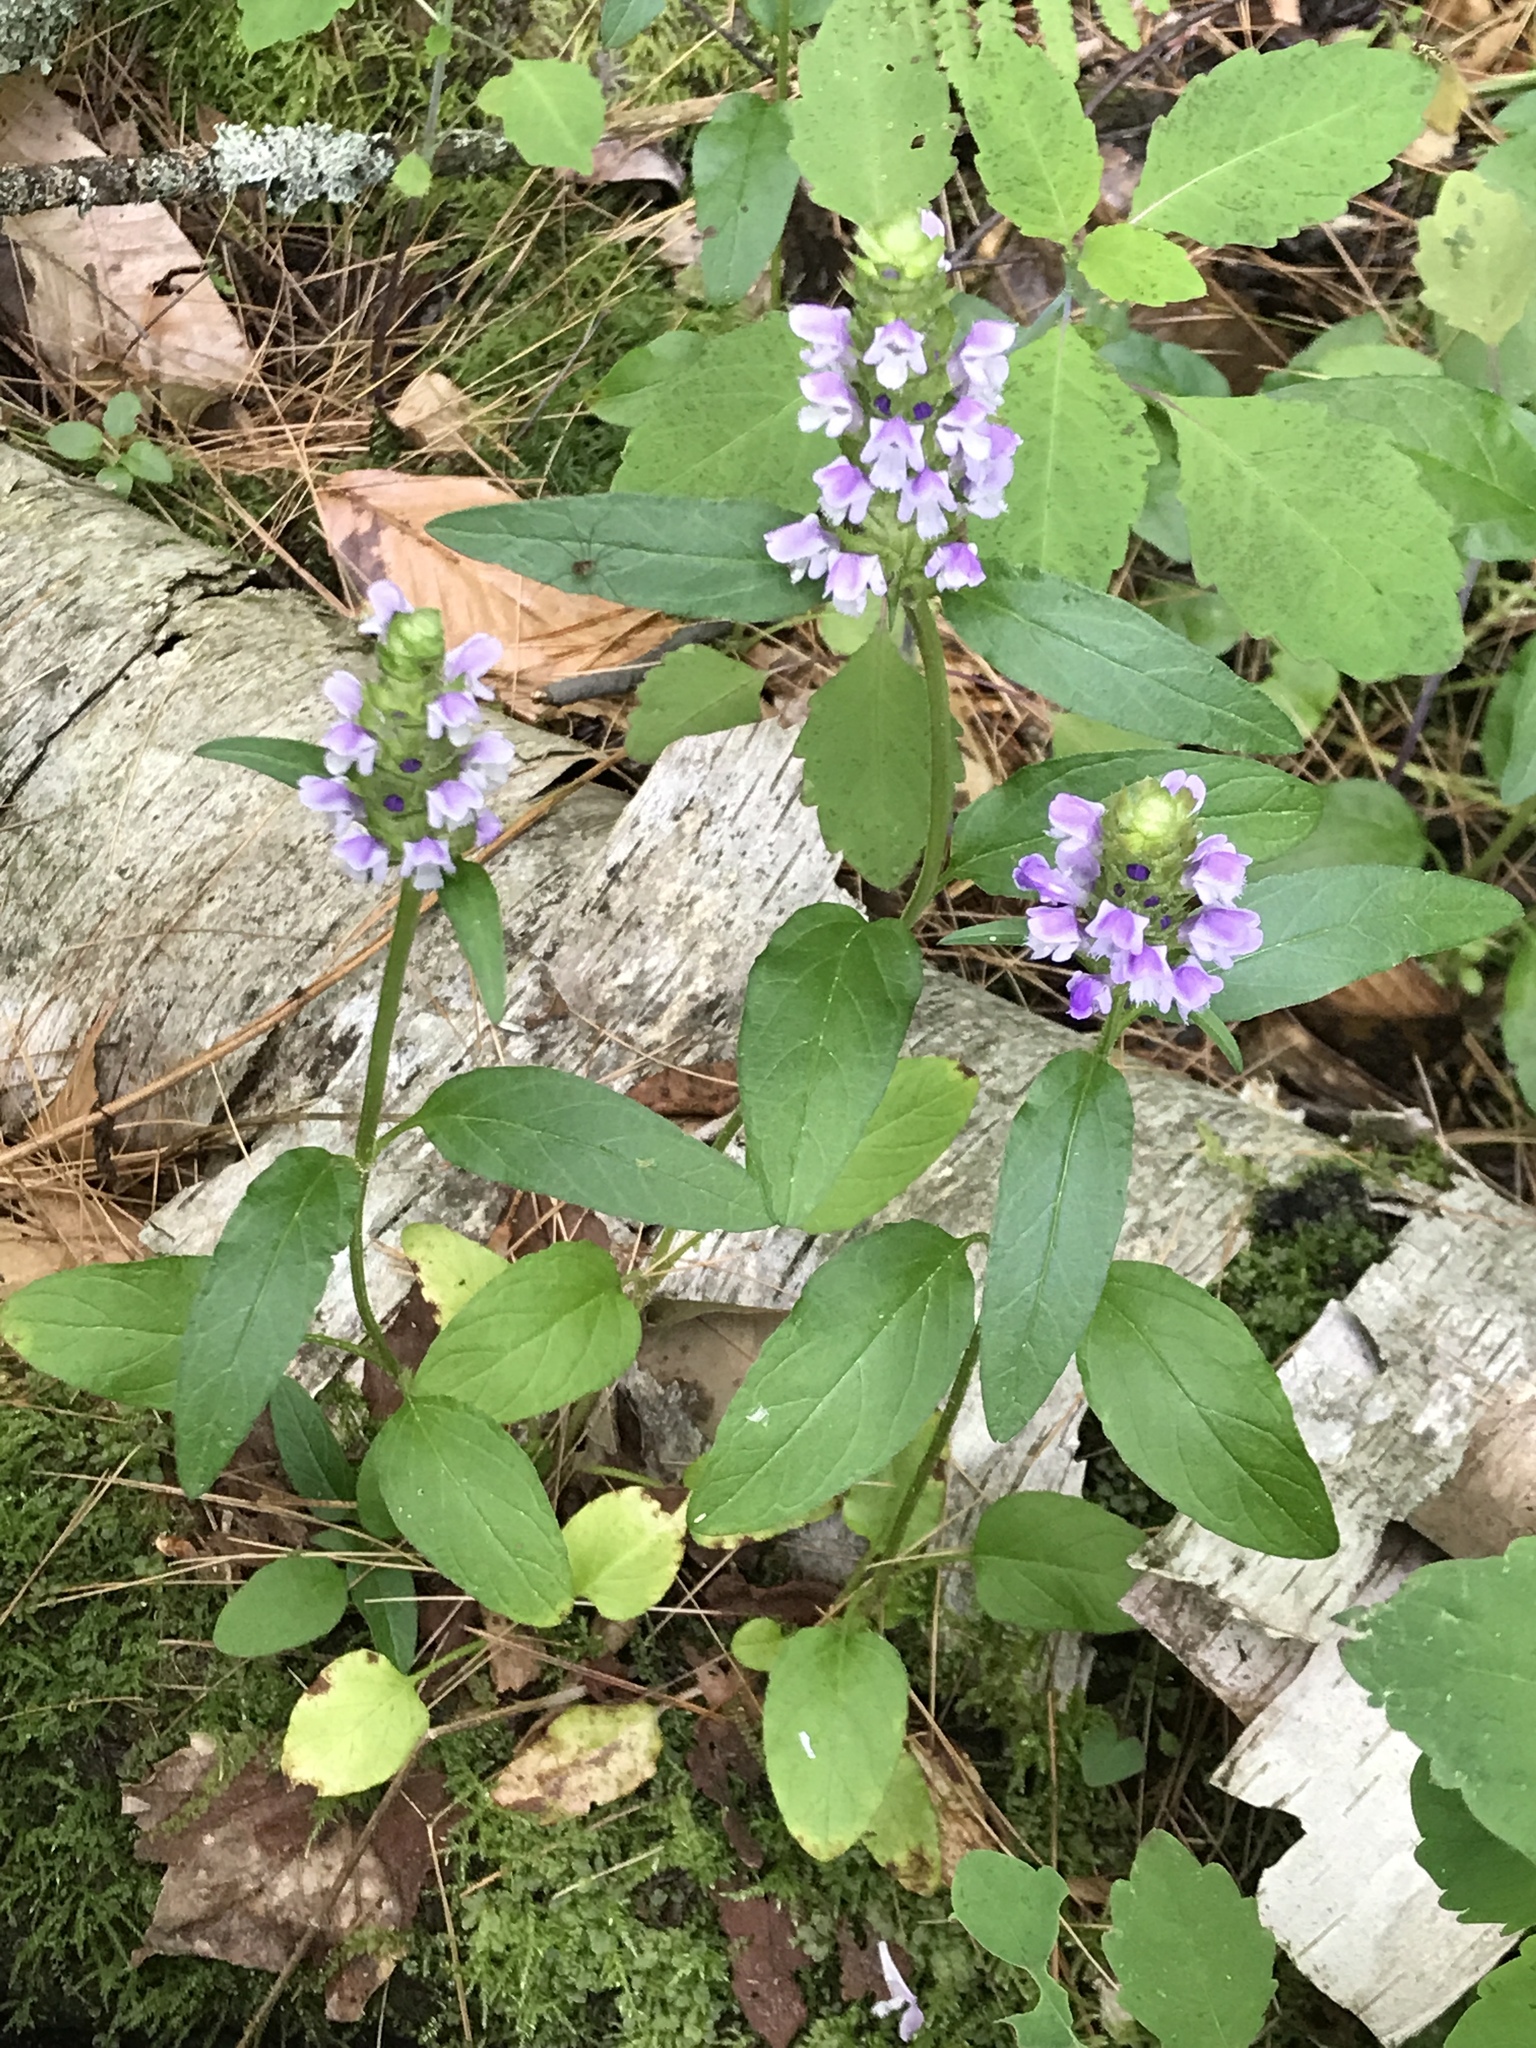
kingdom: Plantae
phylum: Tracheophyta
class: Magnoliopsida
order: Lamiales
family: Lamiaceae
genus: Prunella
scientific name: Prunella vulgaris
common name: Heal-all
